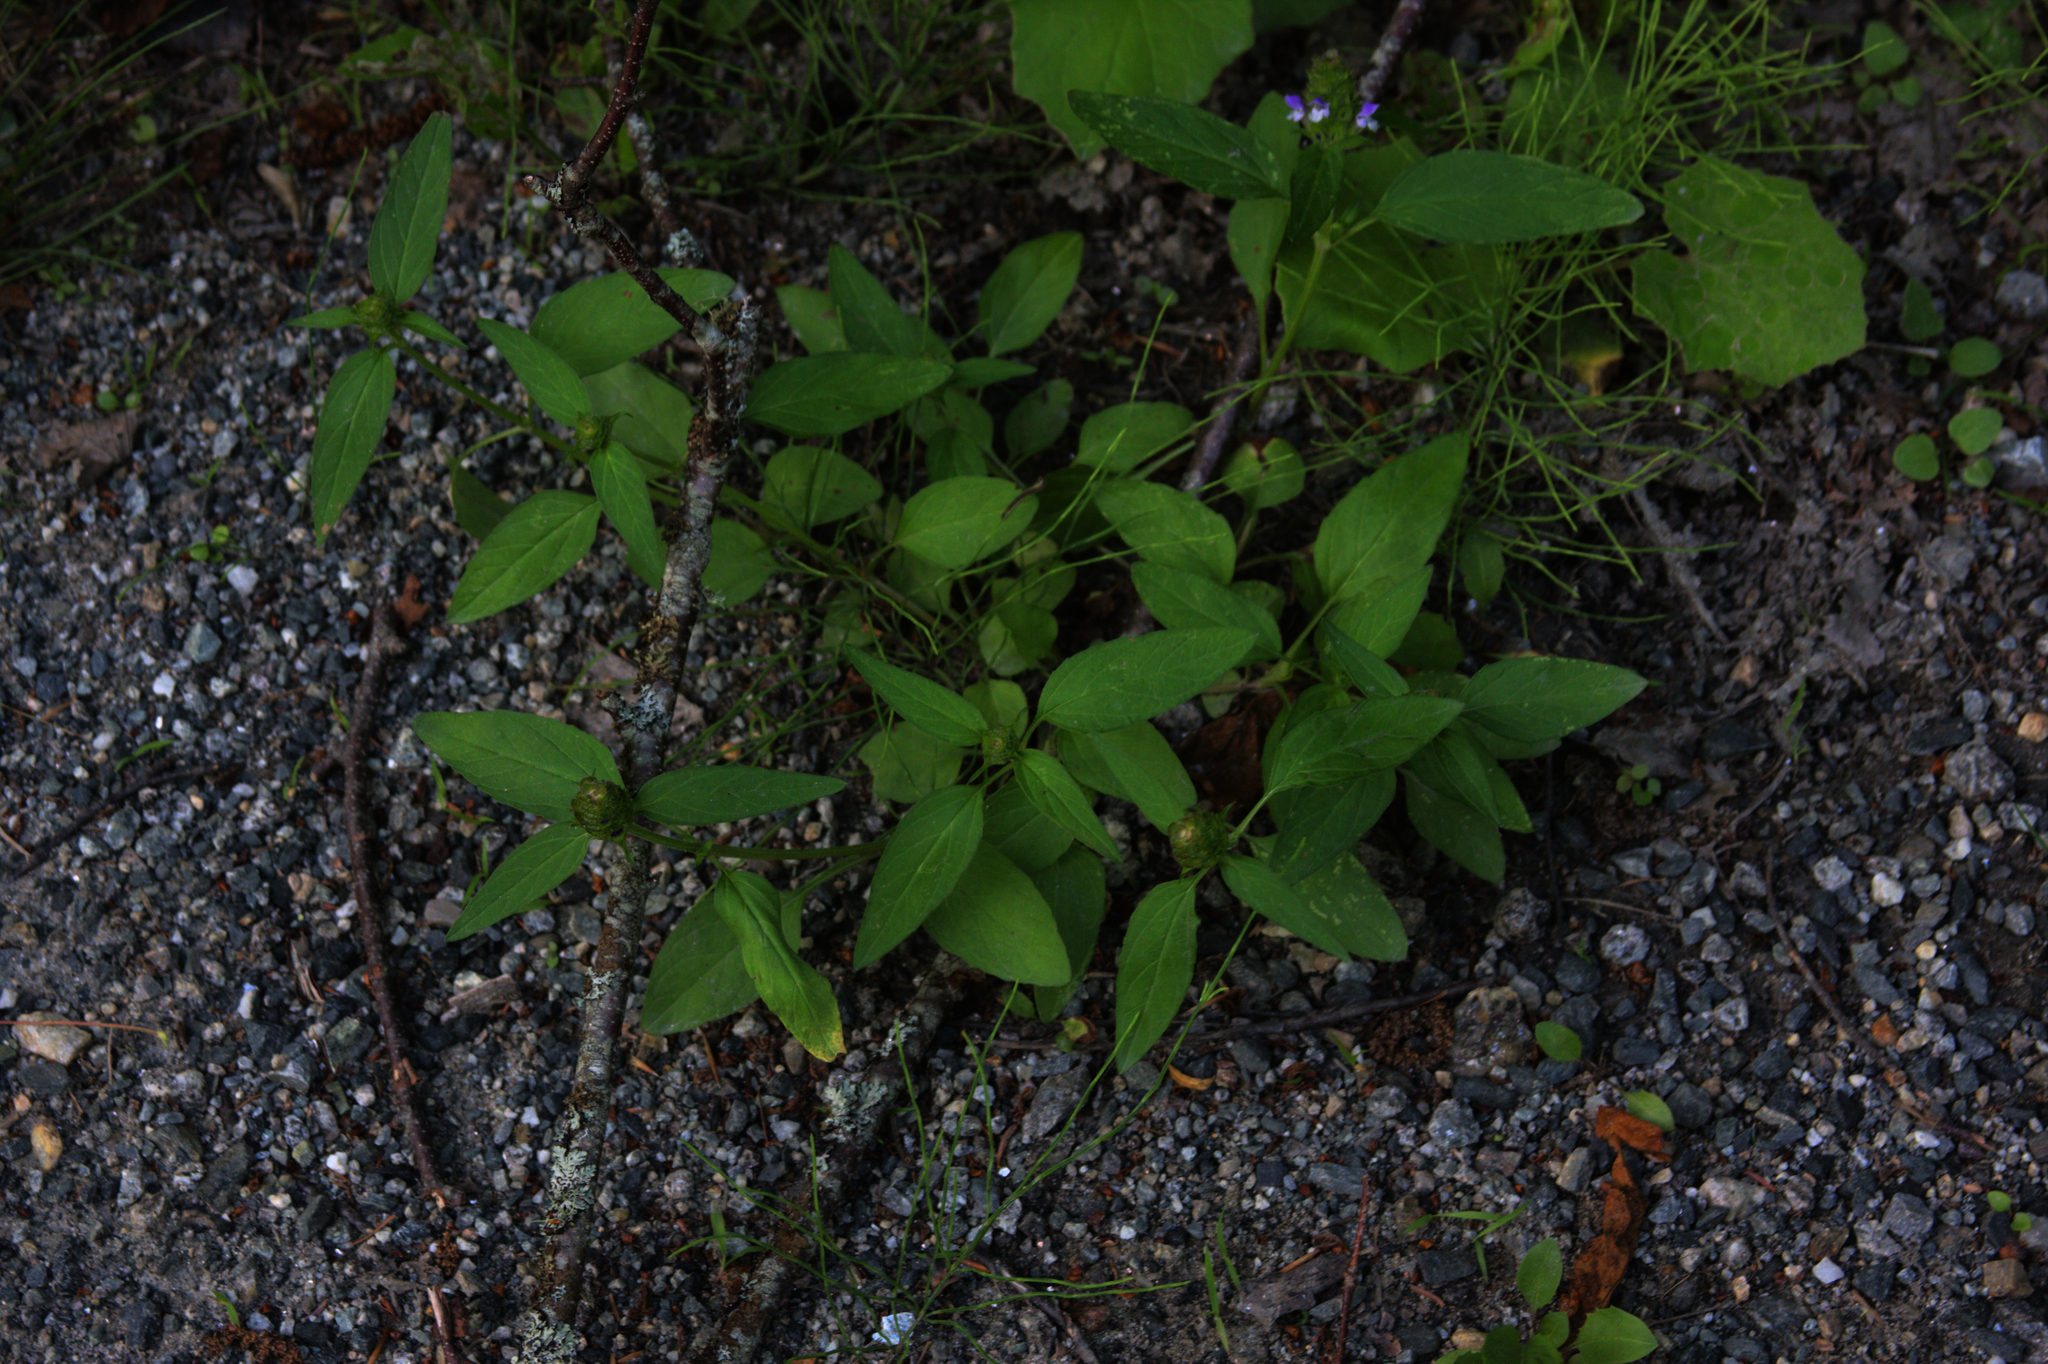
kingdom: Plantae
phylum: Tracheophyta
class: Magnoliopsida
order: Lamiales
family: Lamiaceae
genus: Prunella
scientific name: Prunella vulgaris
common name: Heal-all
